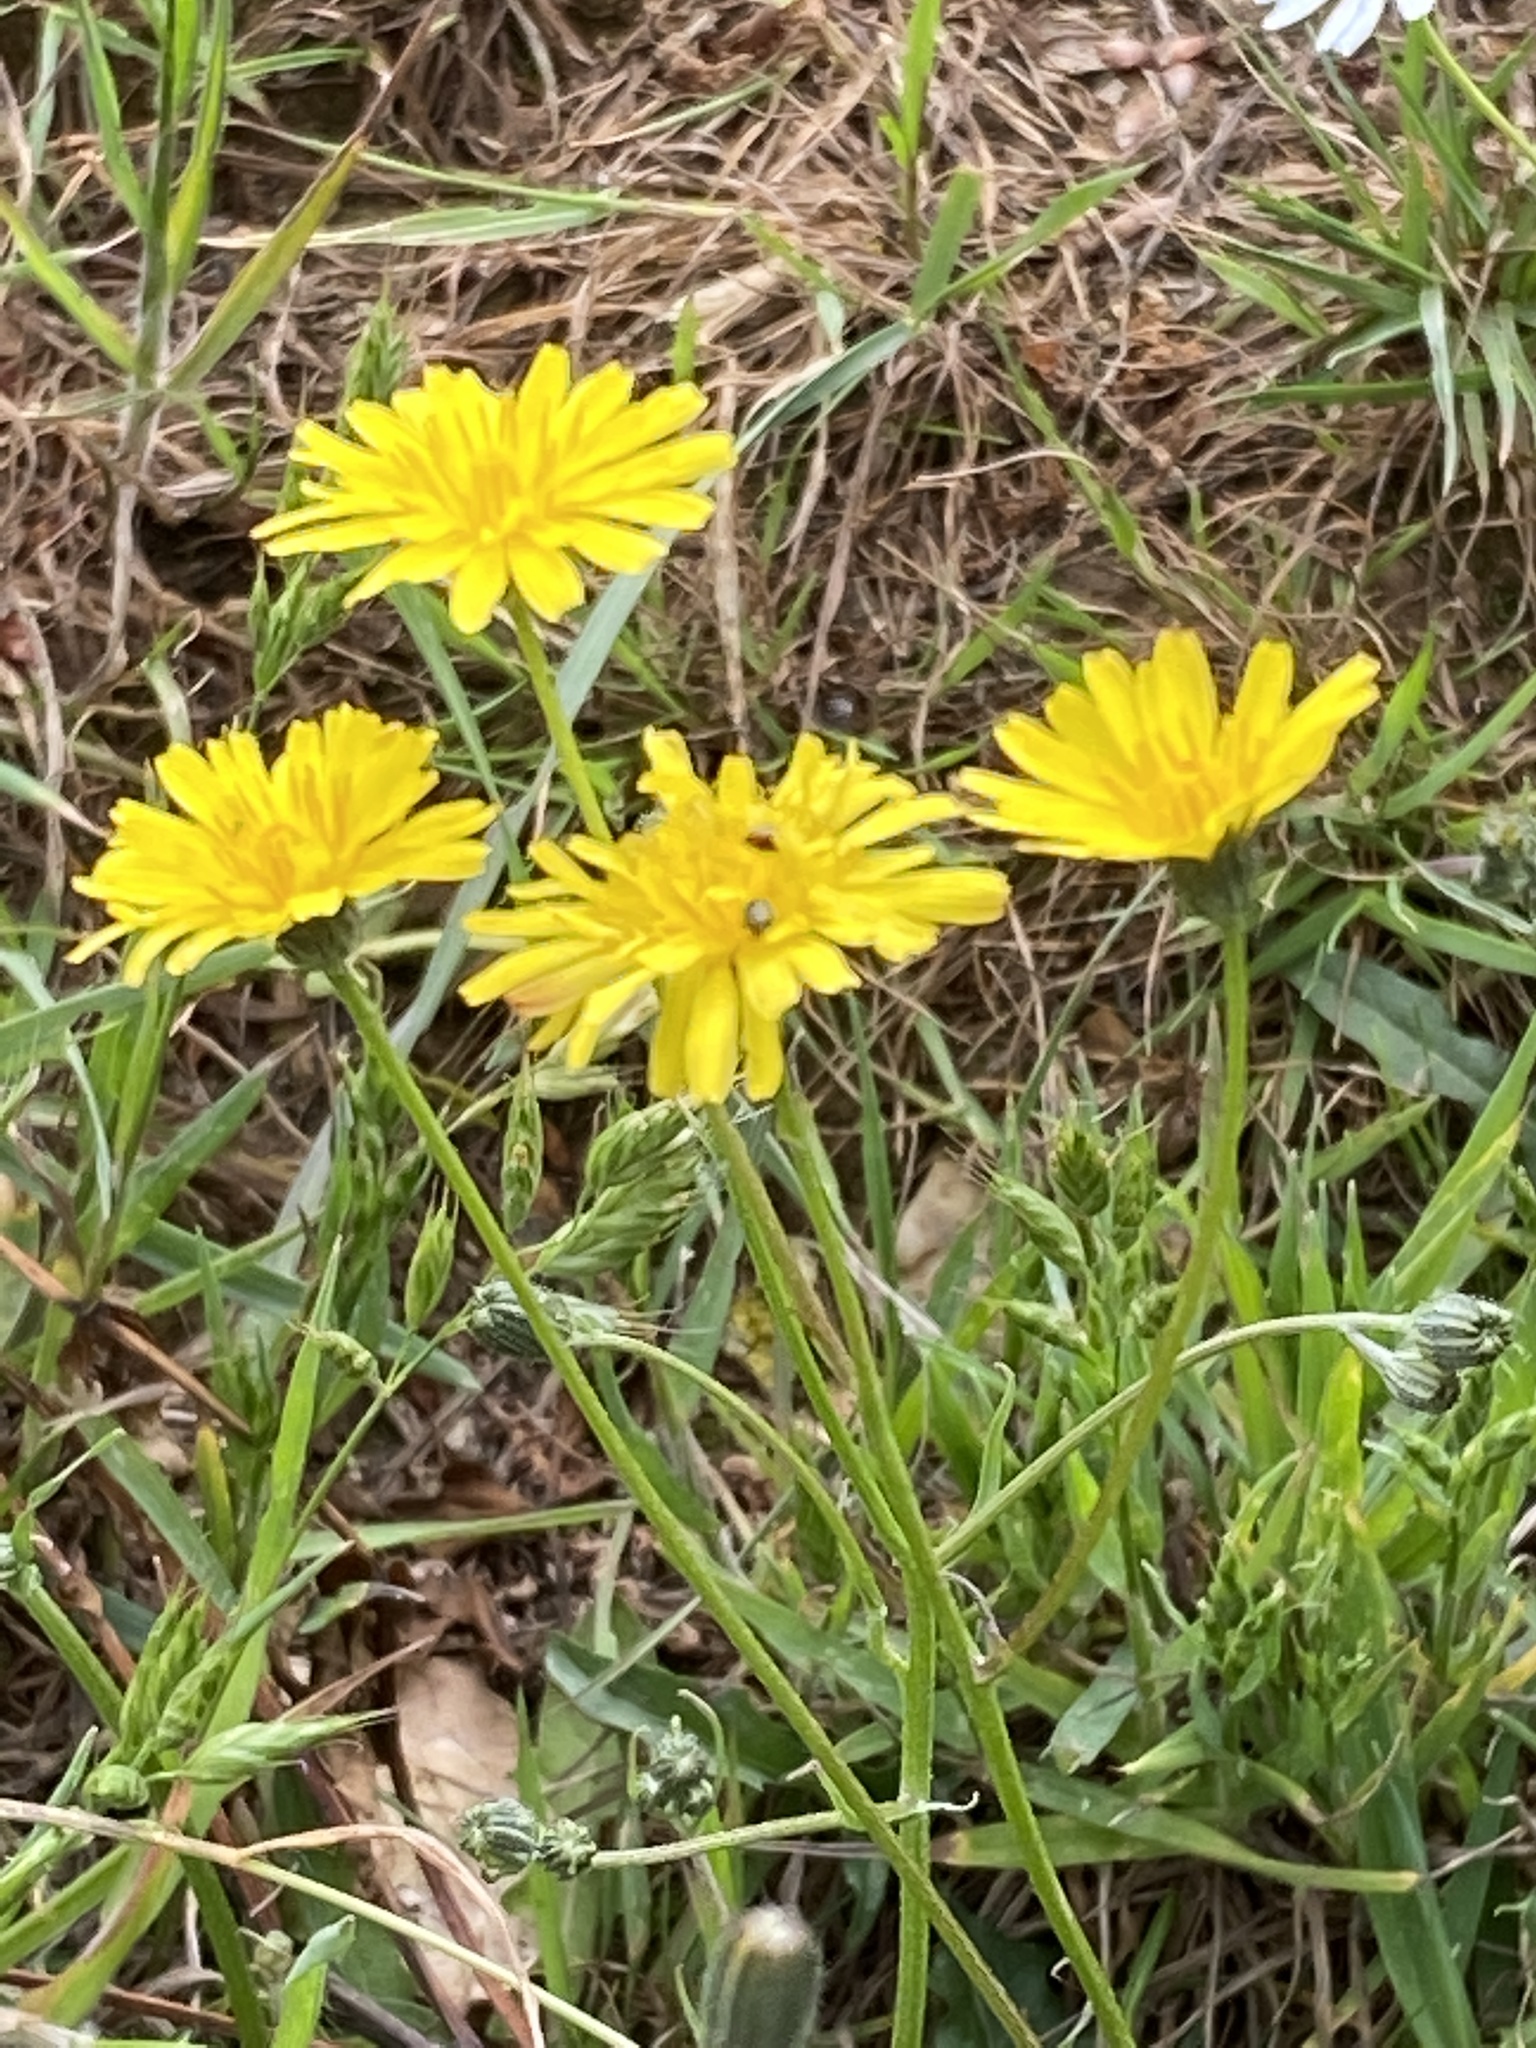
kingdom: Plantae
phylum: Tracheophyta
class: Magnoliopsida
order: Asterales
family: Asteraceae
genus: Hypochaeris
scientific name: Hypochaeris radicata
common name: Flatweed
